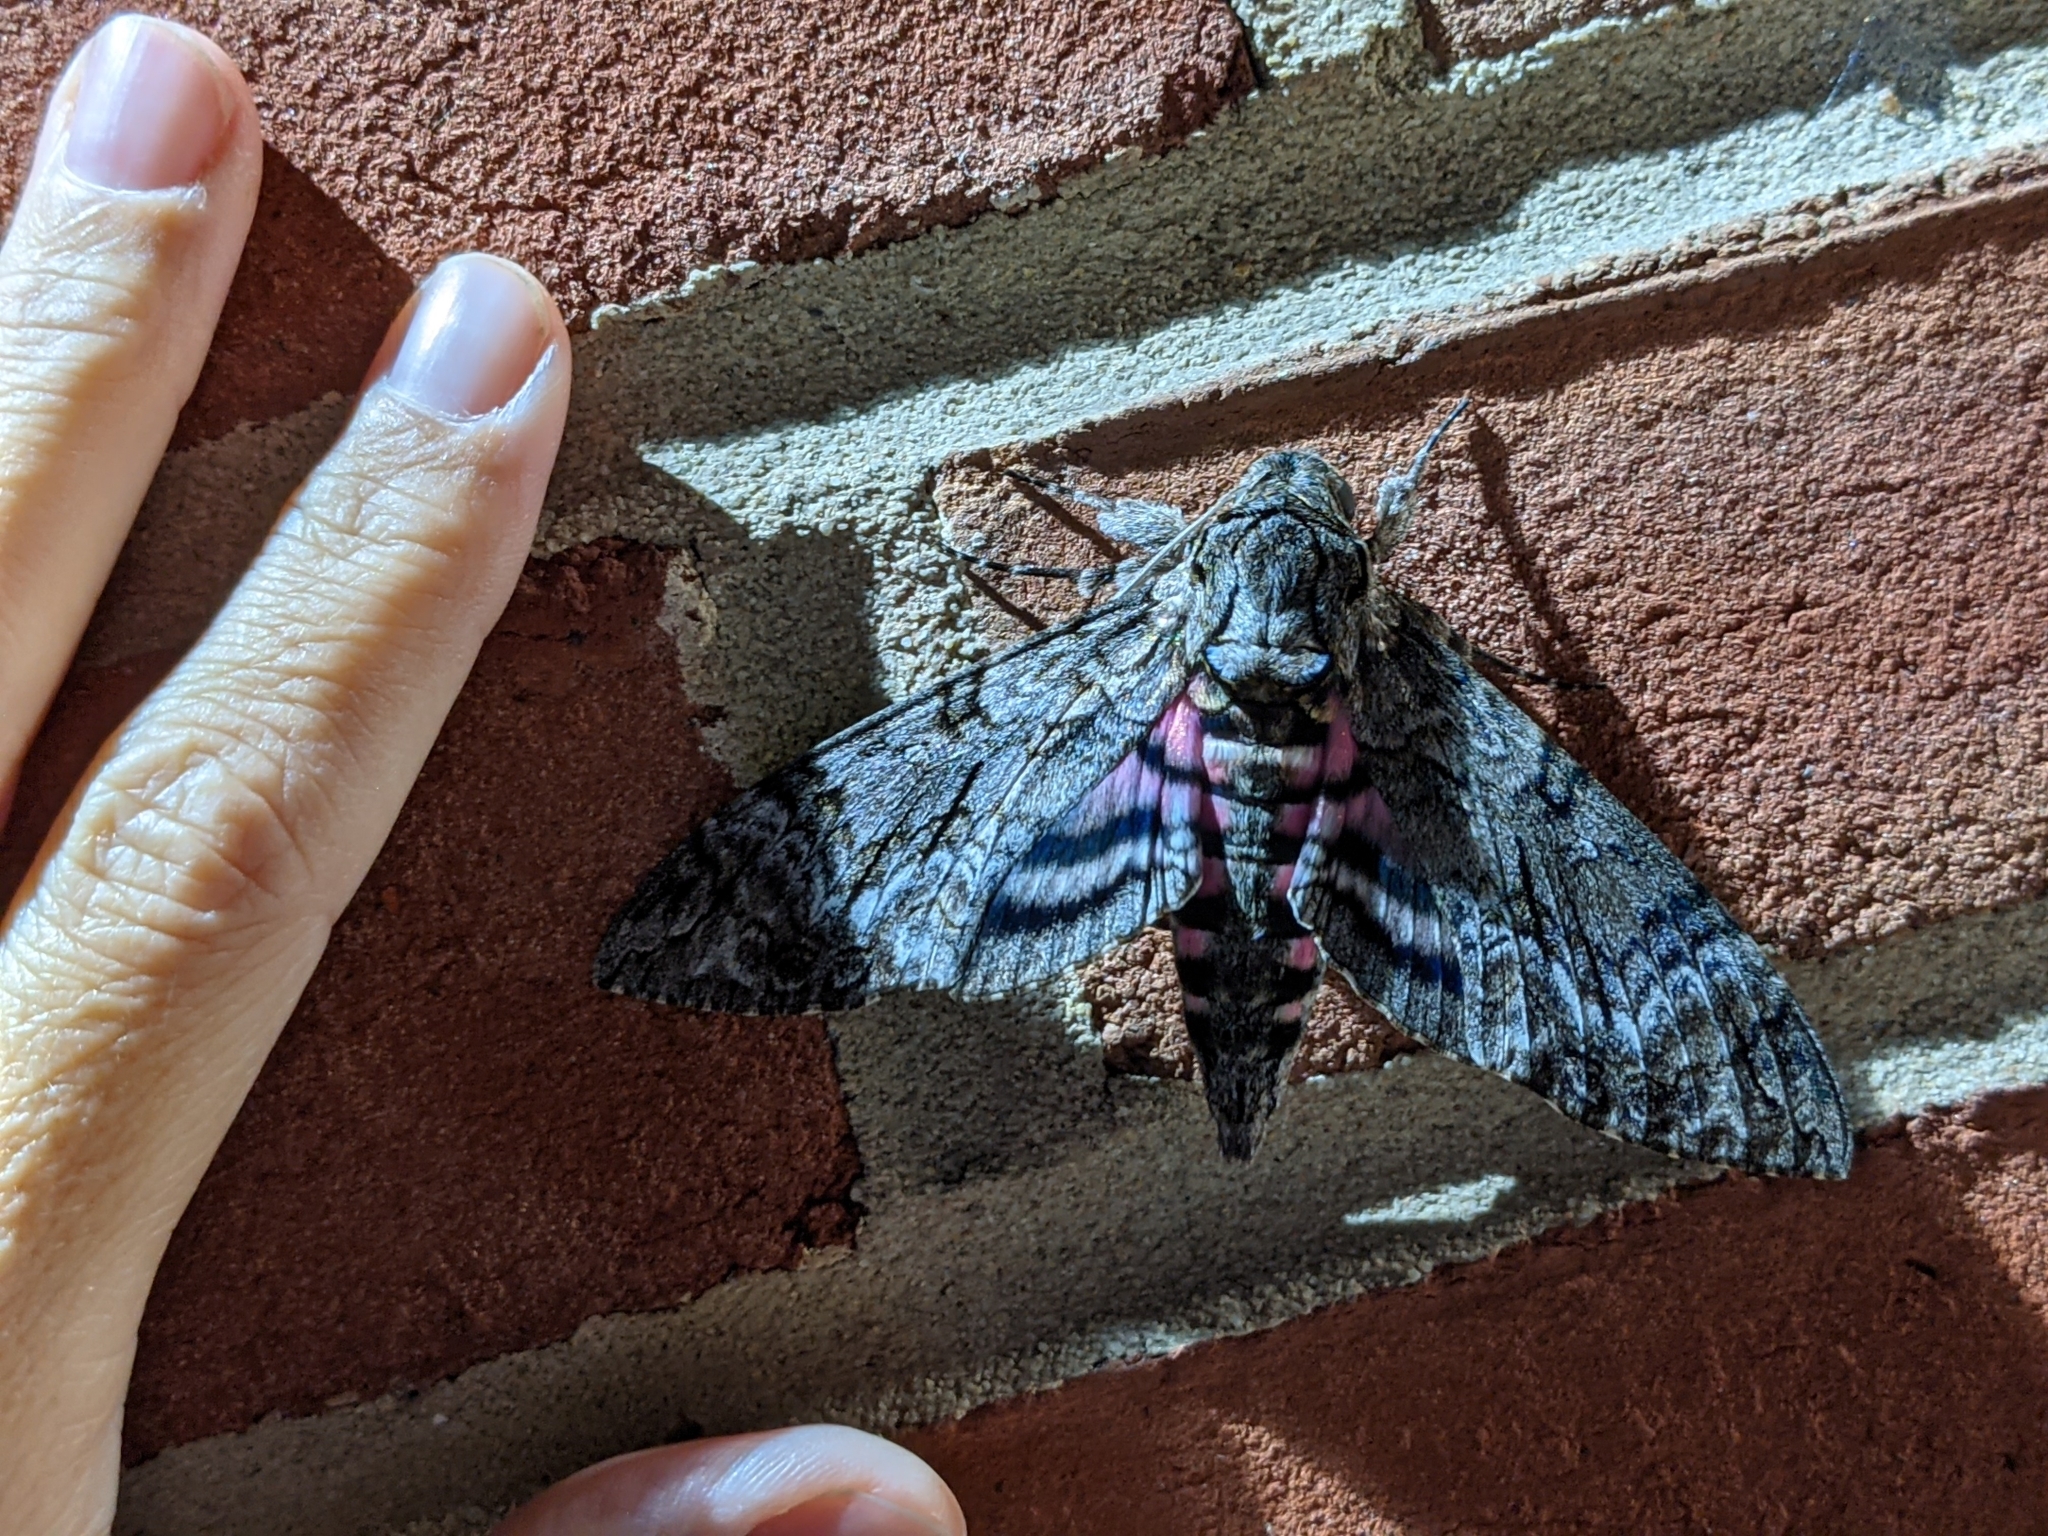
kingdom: Animalia
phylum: Arthropoda
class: Insecta
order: Lepidoptera
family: Sphingidae
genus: Agrius
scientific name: Agrius cingulata
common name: Pink-spotted hawkmoth
